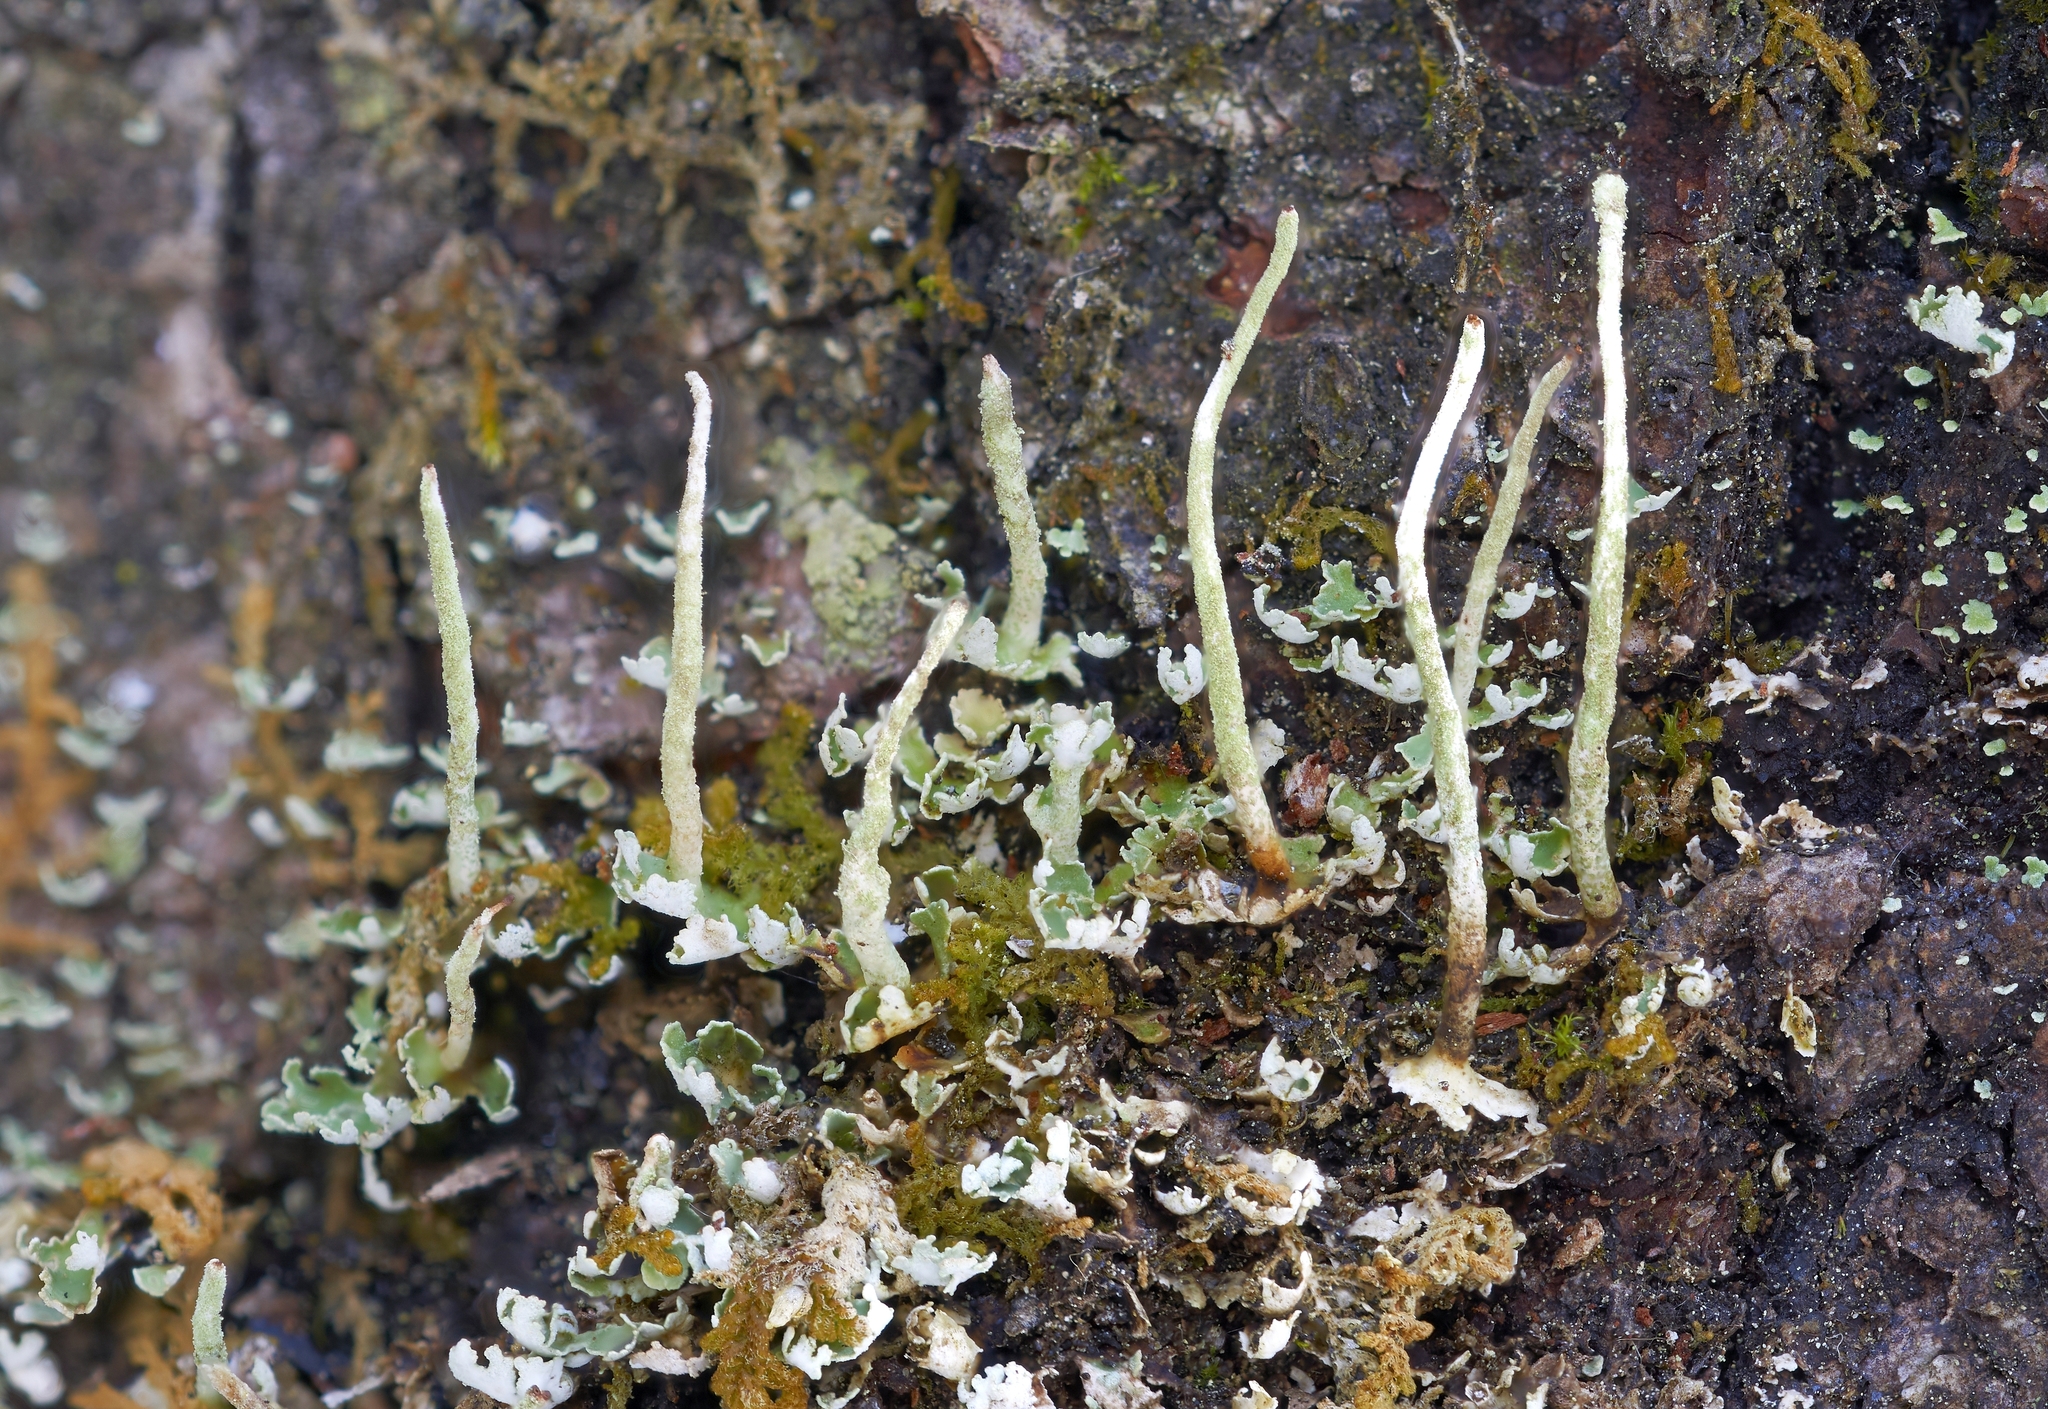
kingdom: Fungi
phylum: Ascomycota
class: Lecanoromycetes
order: Lecanorales
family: Cladoniaceae
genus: Cladonia
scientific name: Cladonia coniocraea
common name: Common powderhorn
